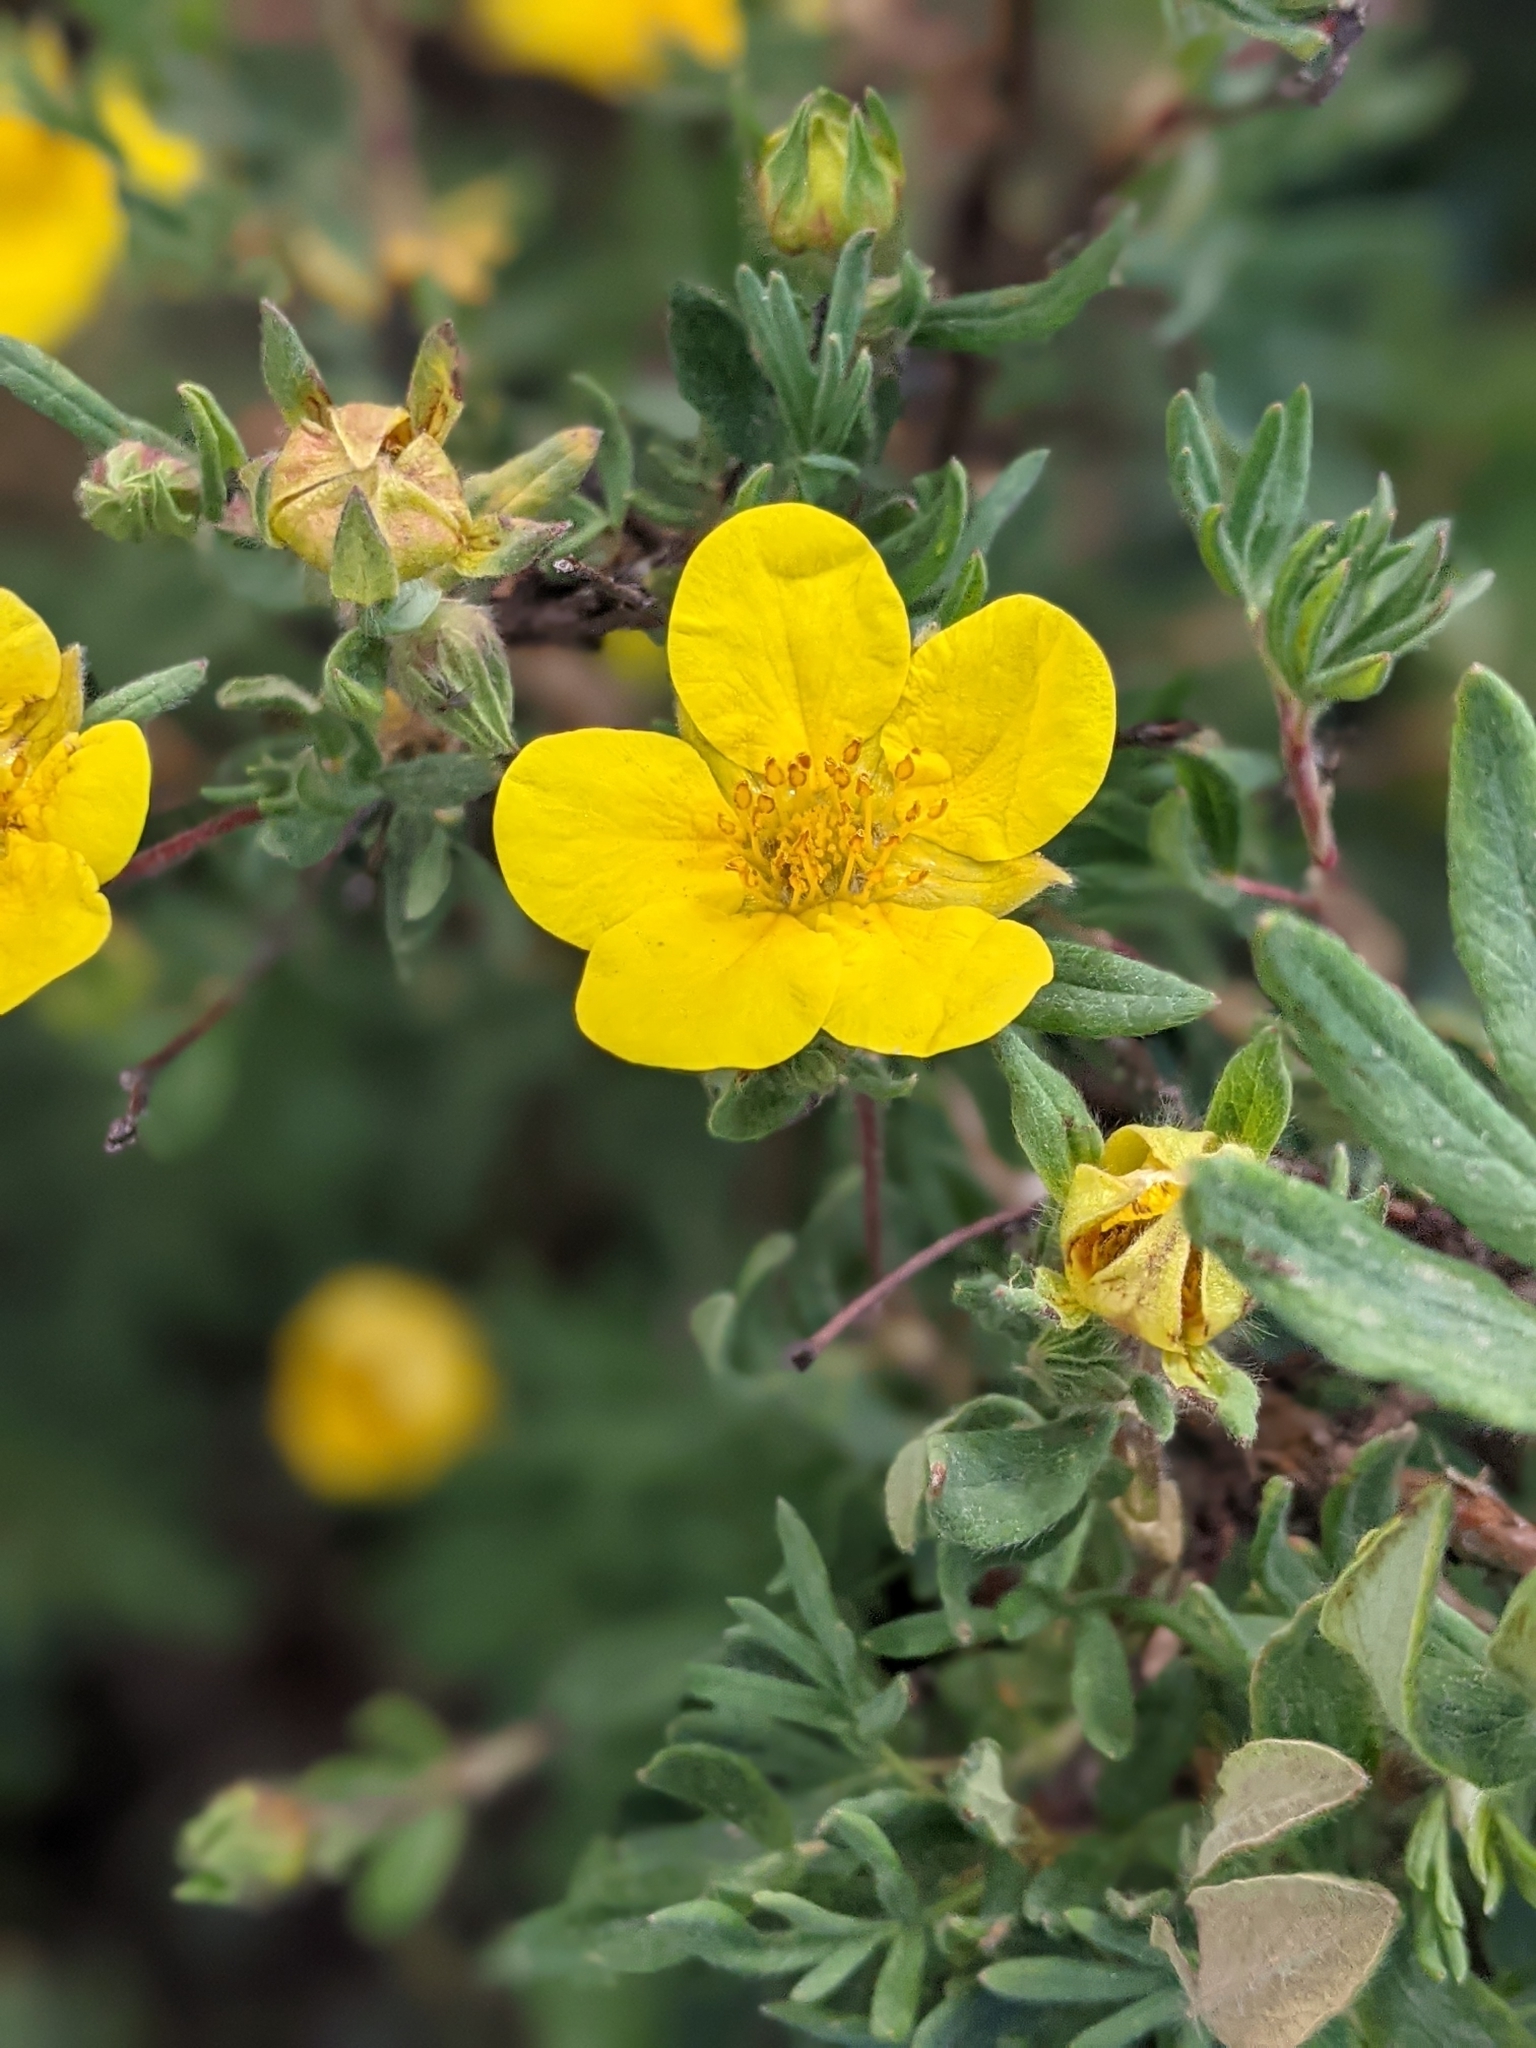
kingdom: Plantae
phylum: Tracheophyta
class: Magnoliopsida
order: Rosales
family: Rosaceae
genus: Dasiphora
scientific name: Dasiphora fruticosa
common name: Shrubby cinquefoil
